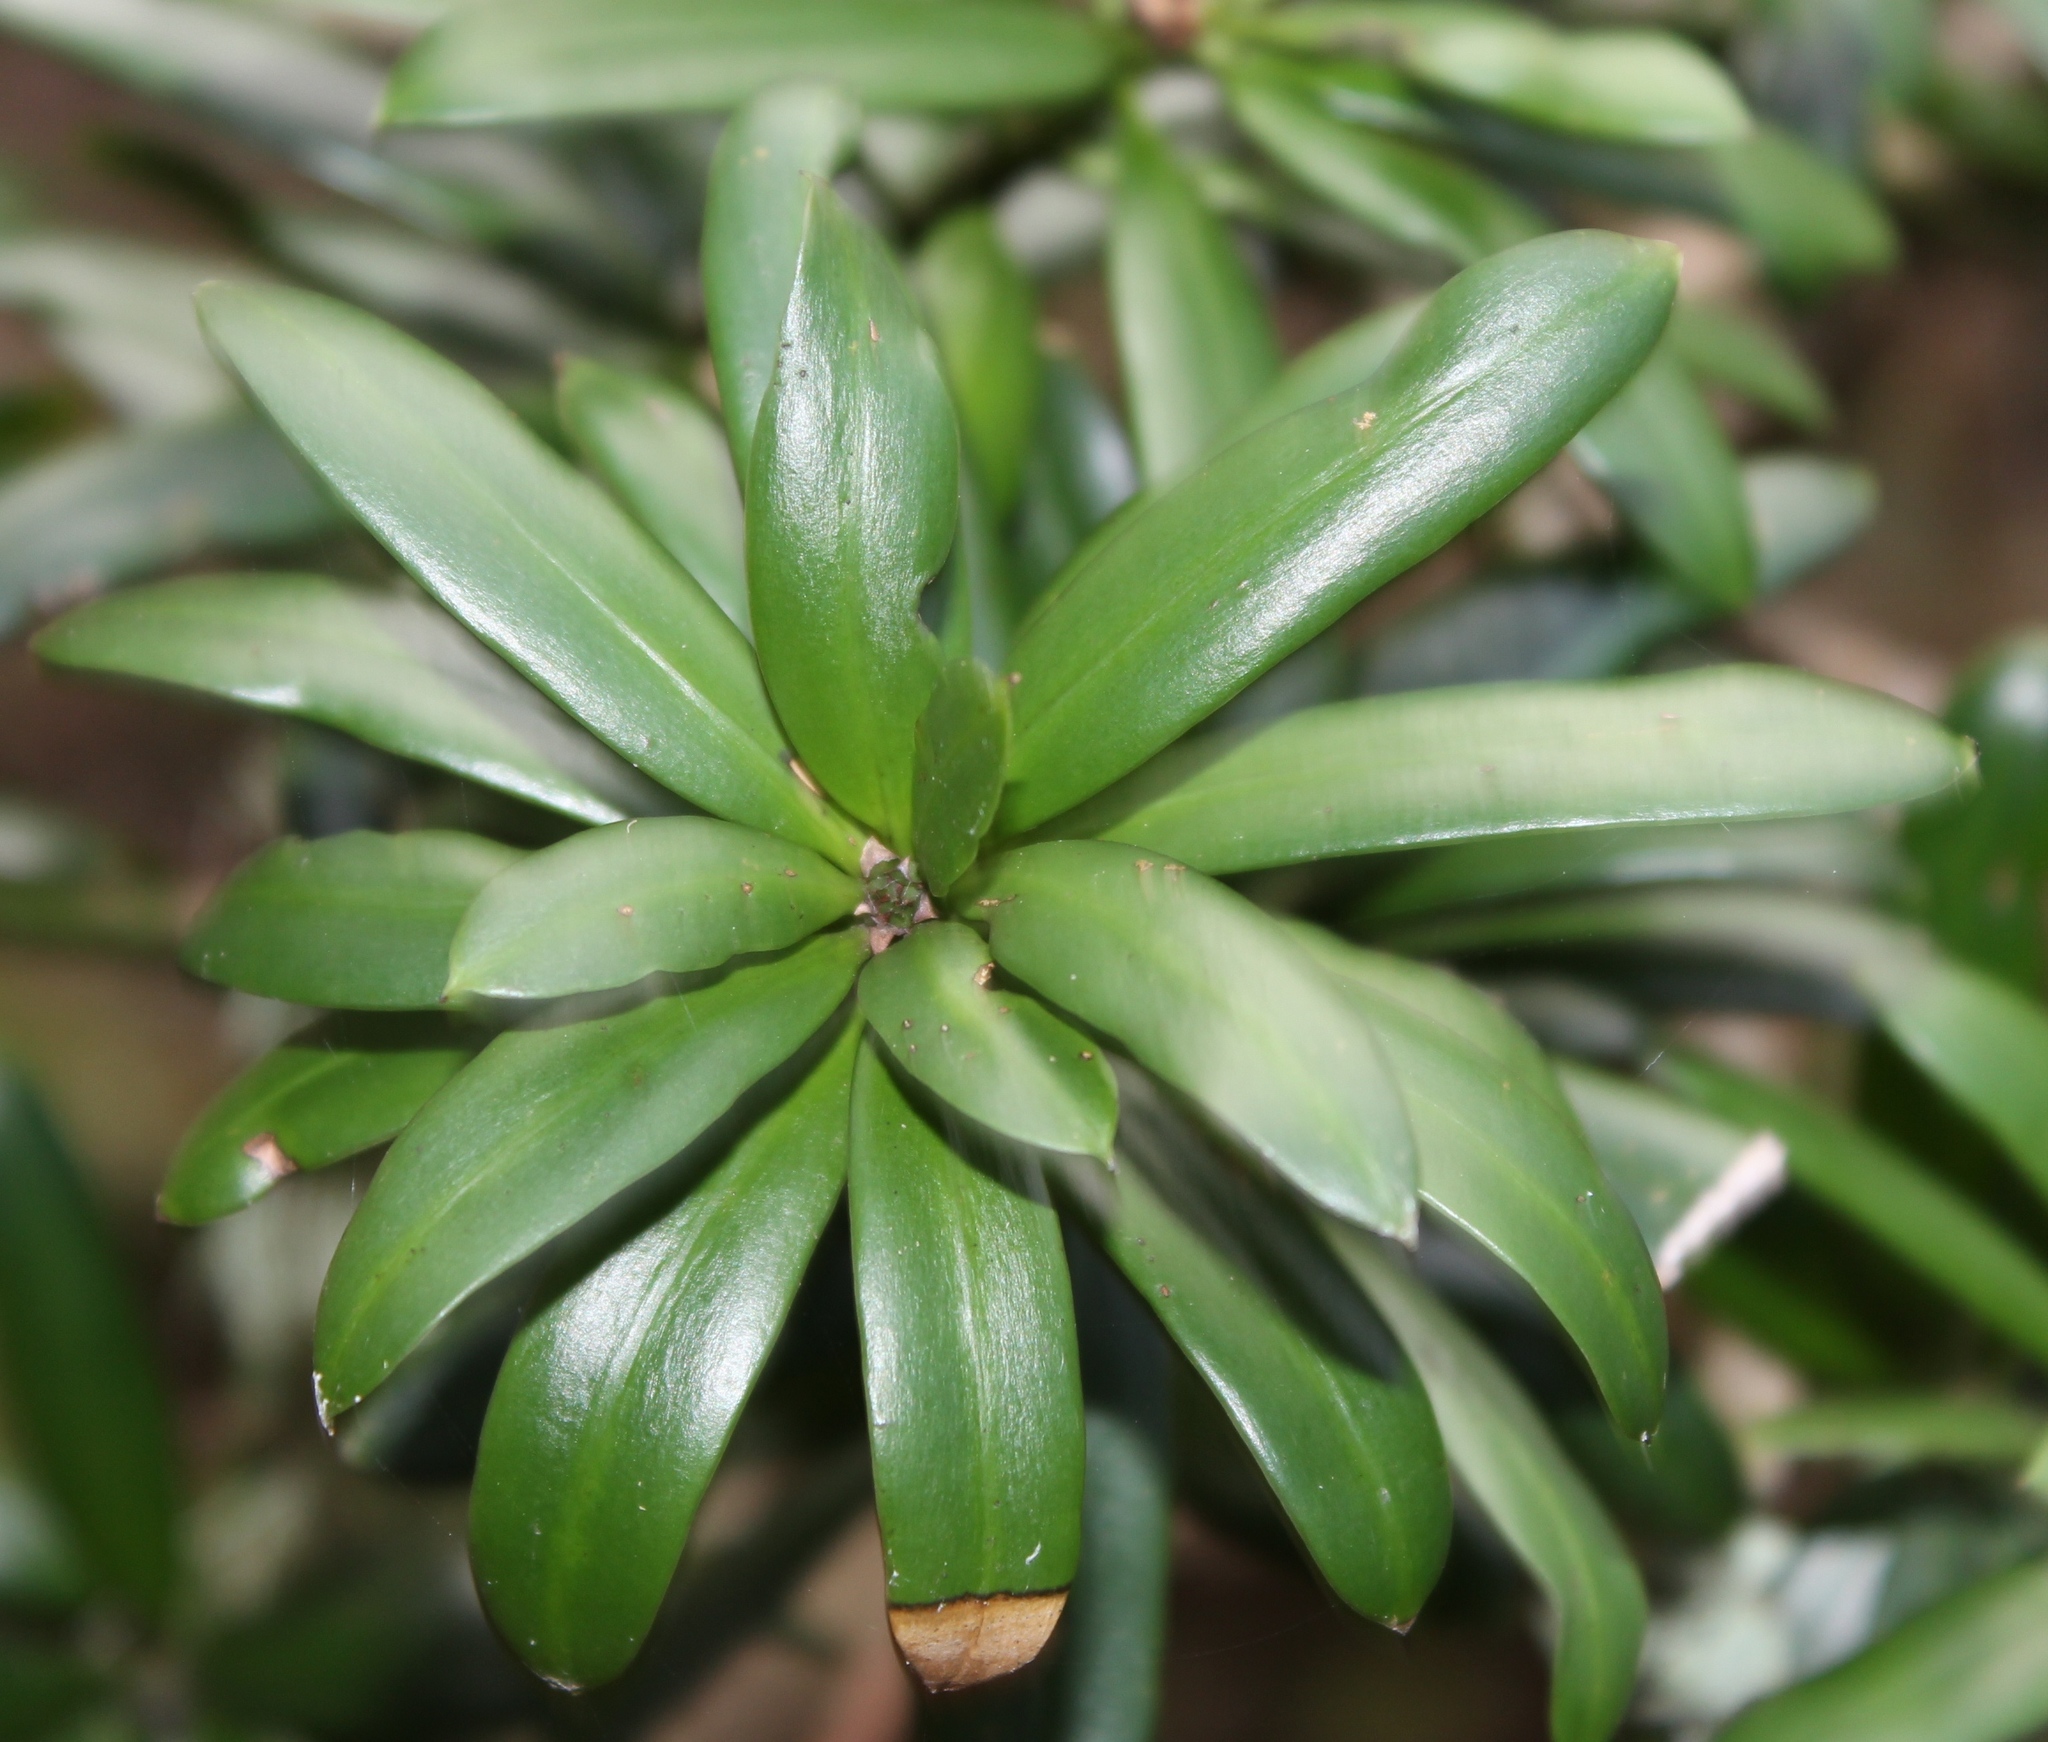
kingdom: Plantae
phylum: Tracheophyta
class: Pinopsida
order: Pinales
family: Podocarpaceae
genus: Podocarpus
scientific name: Podocarpus latifolius
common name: True yellowwood
